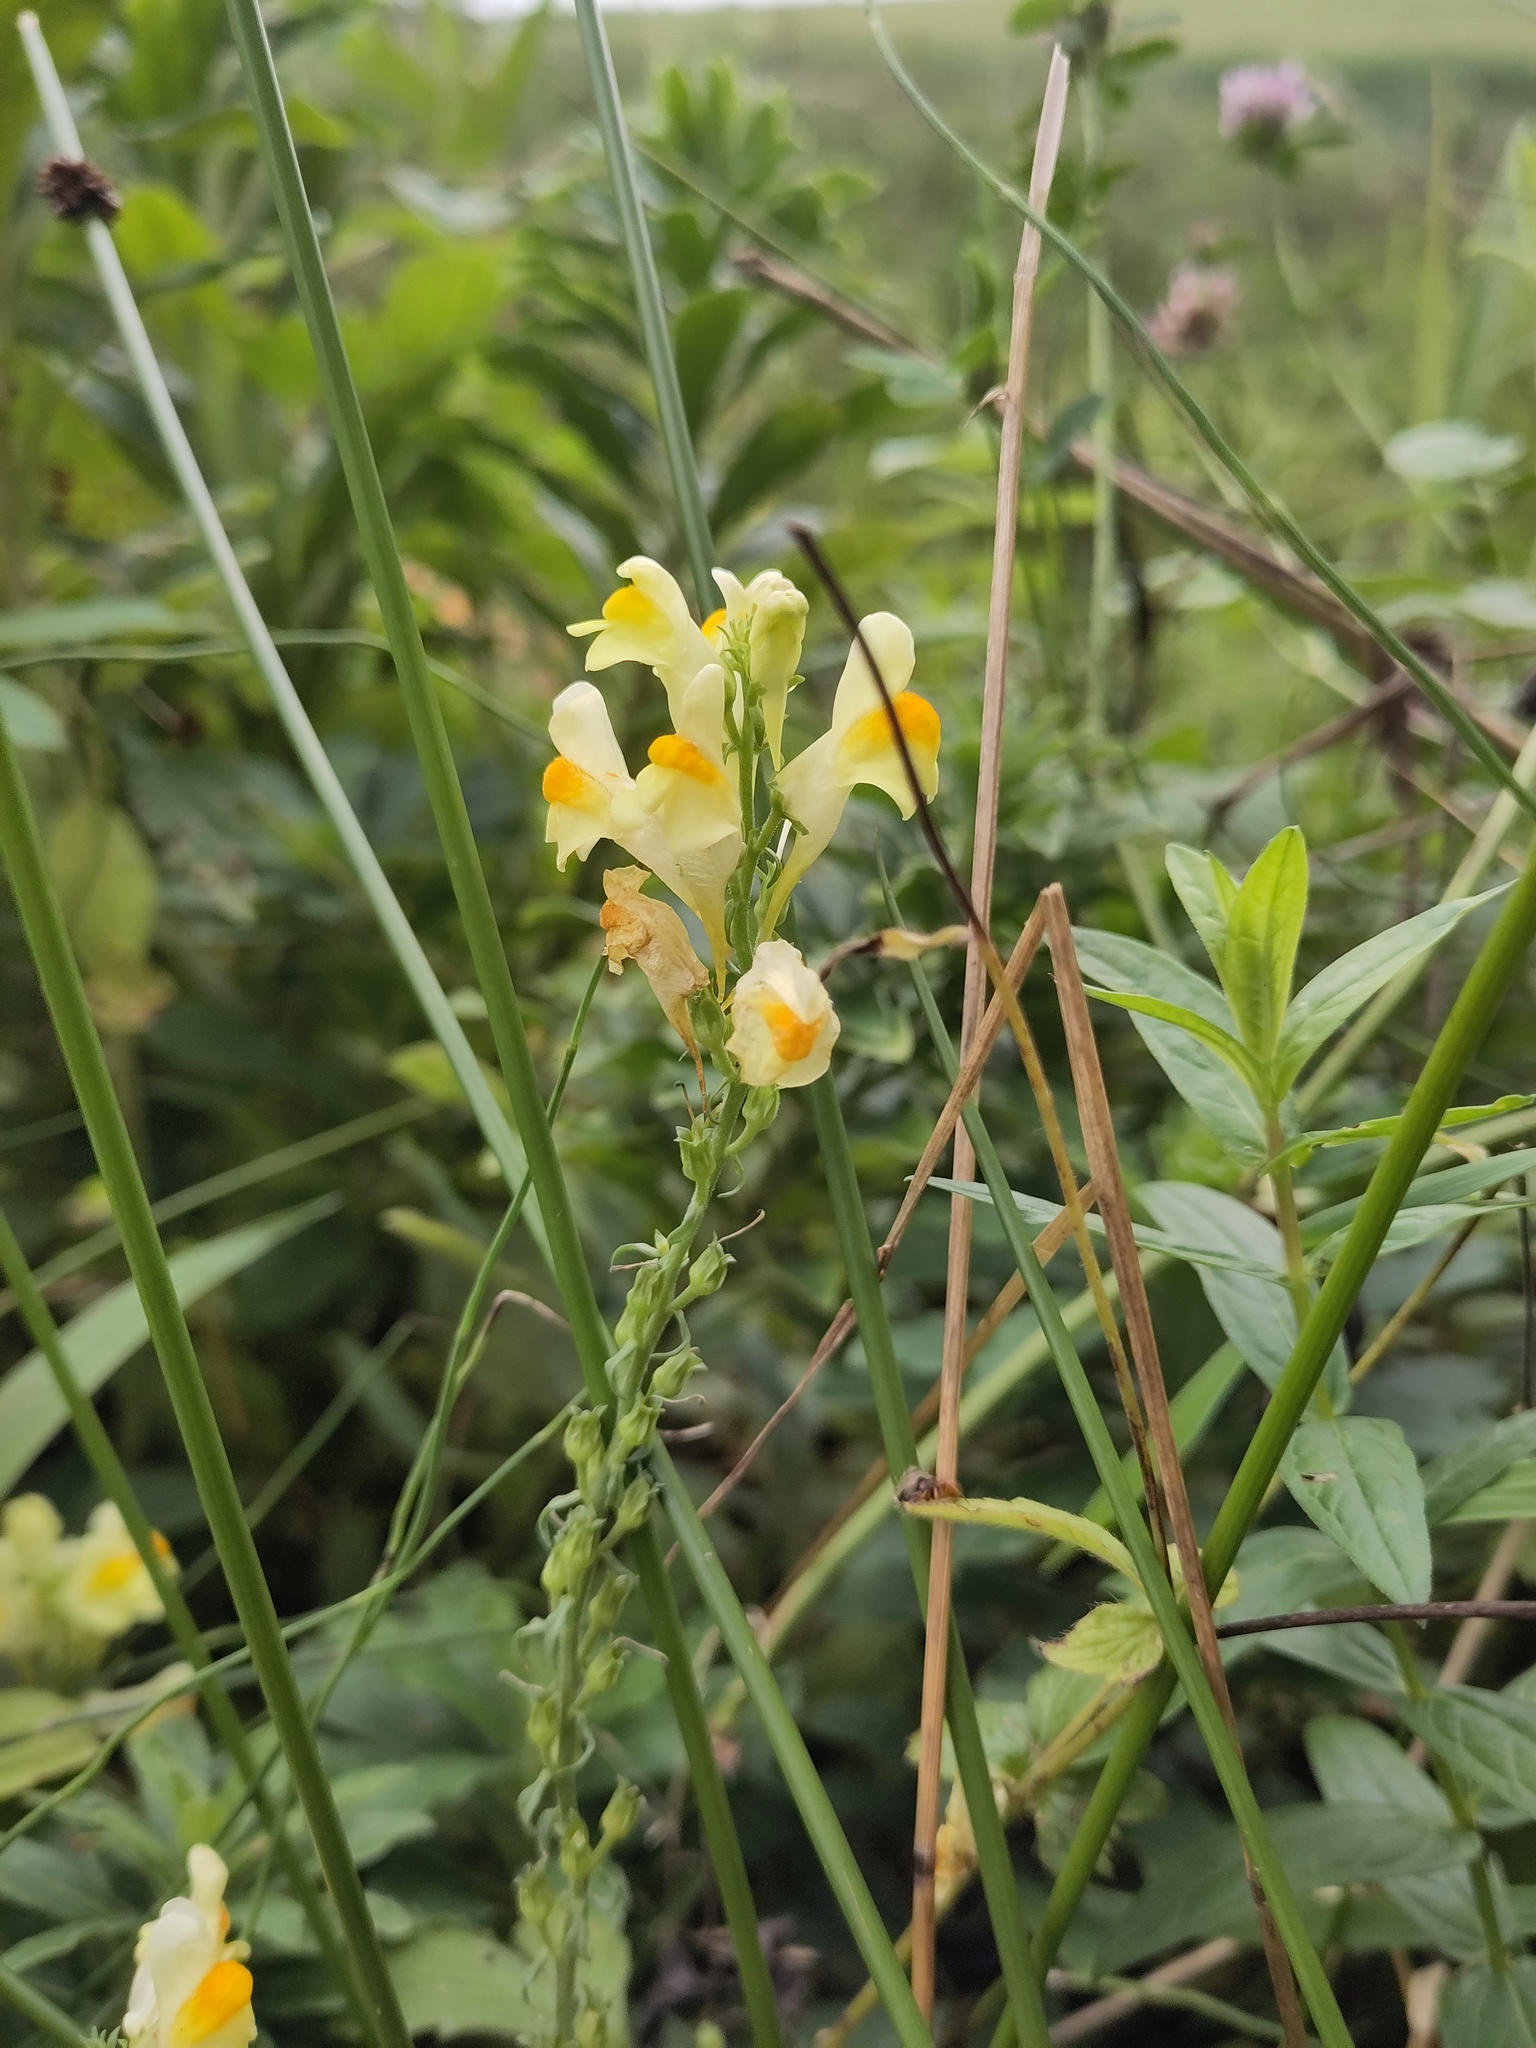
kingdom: Plantae
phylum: Tracheophyta
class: Magnoliopsida
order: Lamiales
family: Plantaginaceae
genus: Linaria
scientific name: Linaria vulgaris
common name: Butter and eggs
